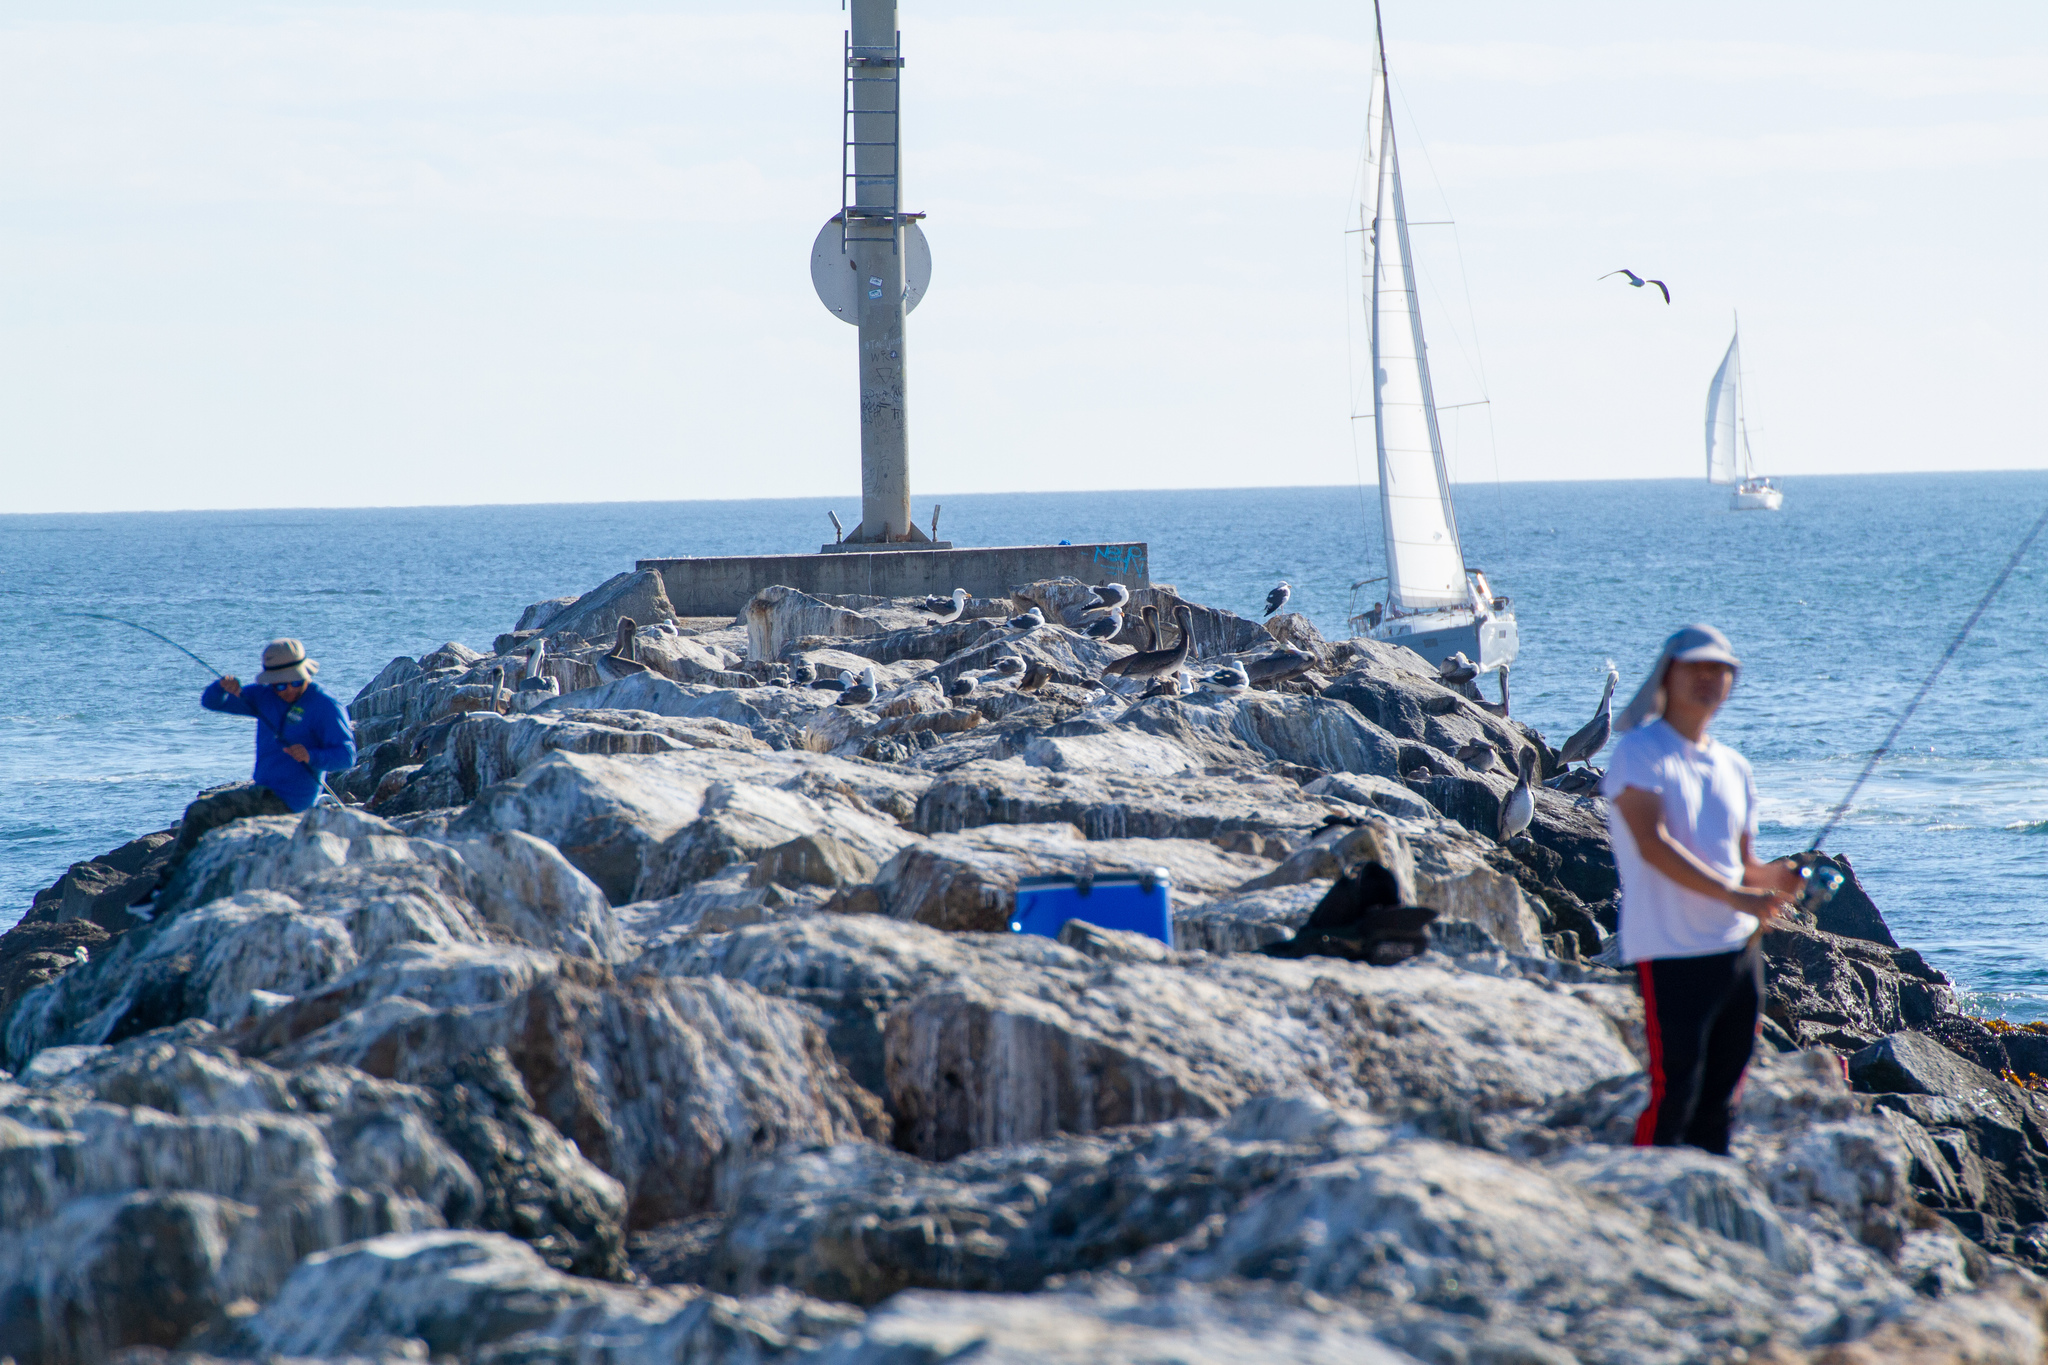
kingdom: Animalia
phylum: Chordata
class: Aves
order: Suliformes
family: Sulidae
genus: Sula
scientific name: Sula sula
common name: Red-footed booby
